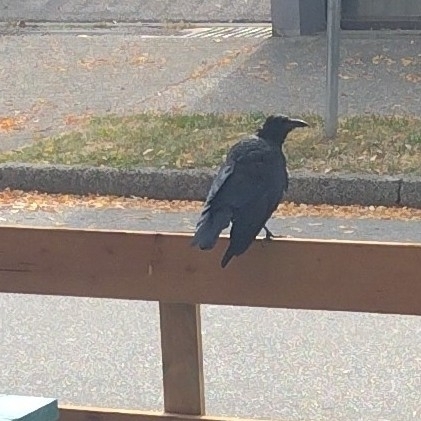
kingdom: Animalia
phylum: Chordata
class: Aves
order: Passeriformes
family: Corvidae
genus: Corvus
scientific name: Corvus brachyrhynchos
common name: American crow
